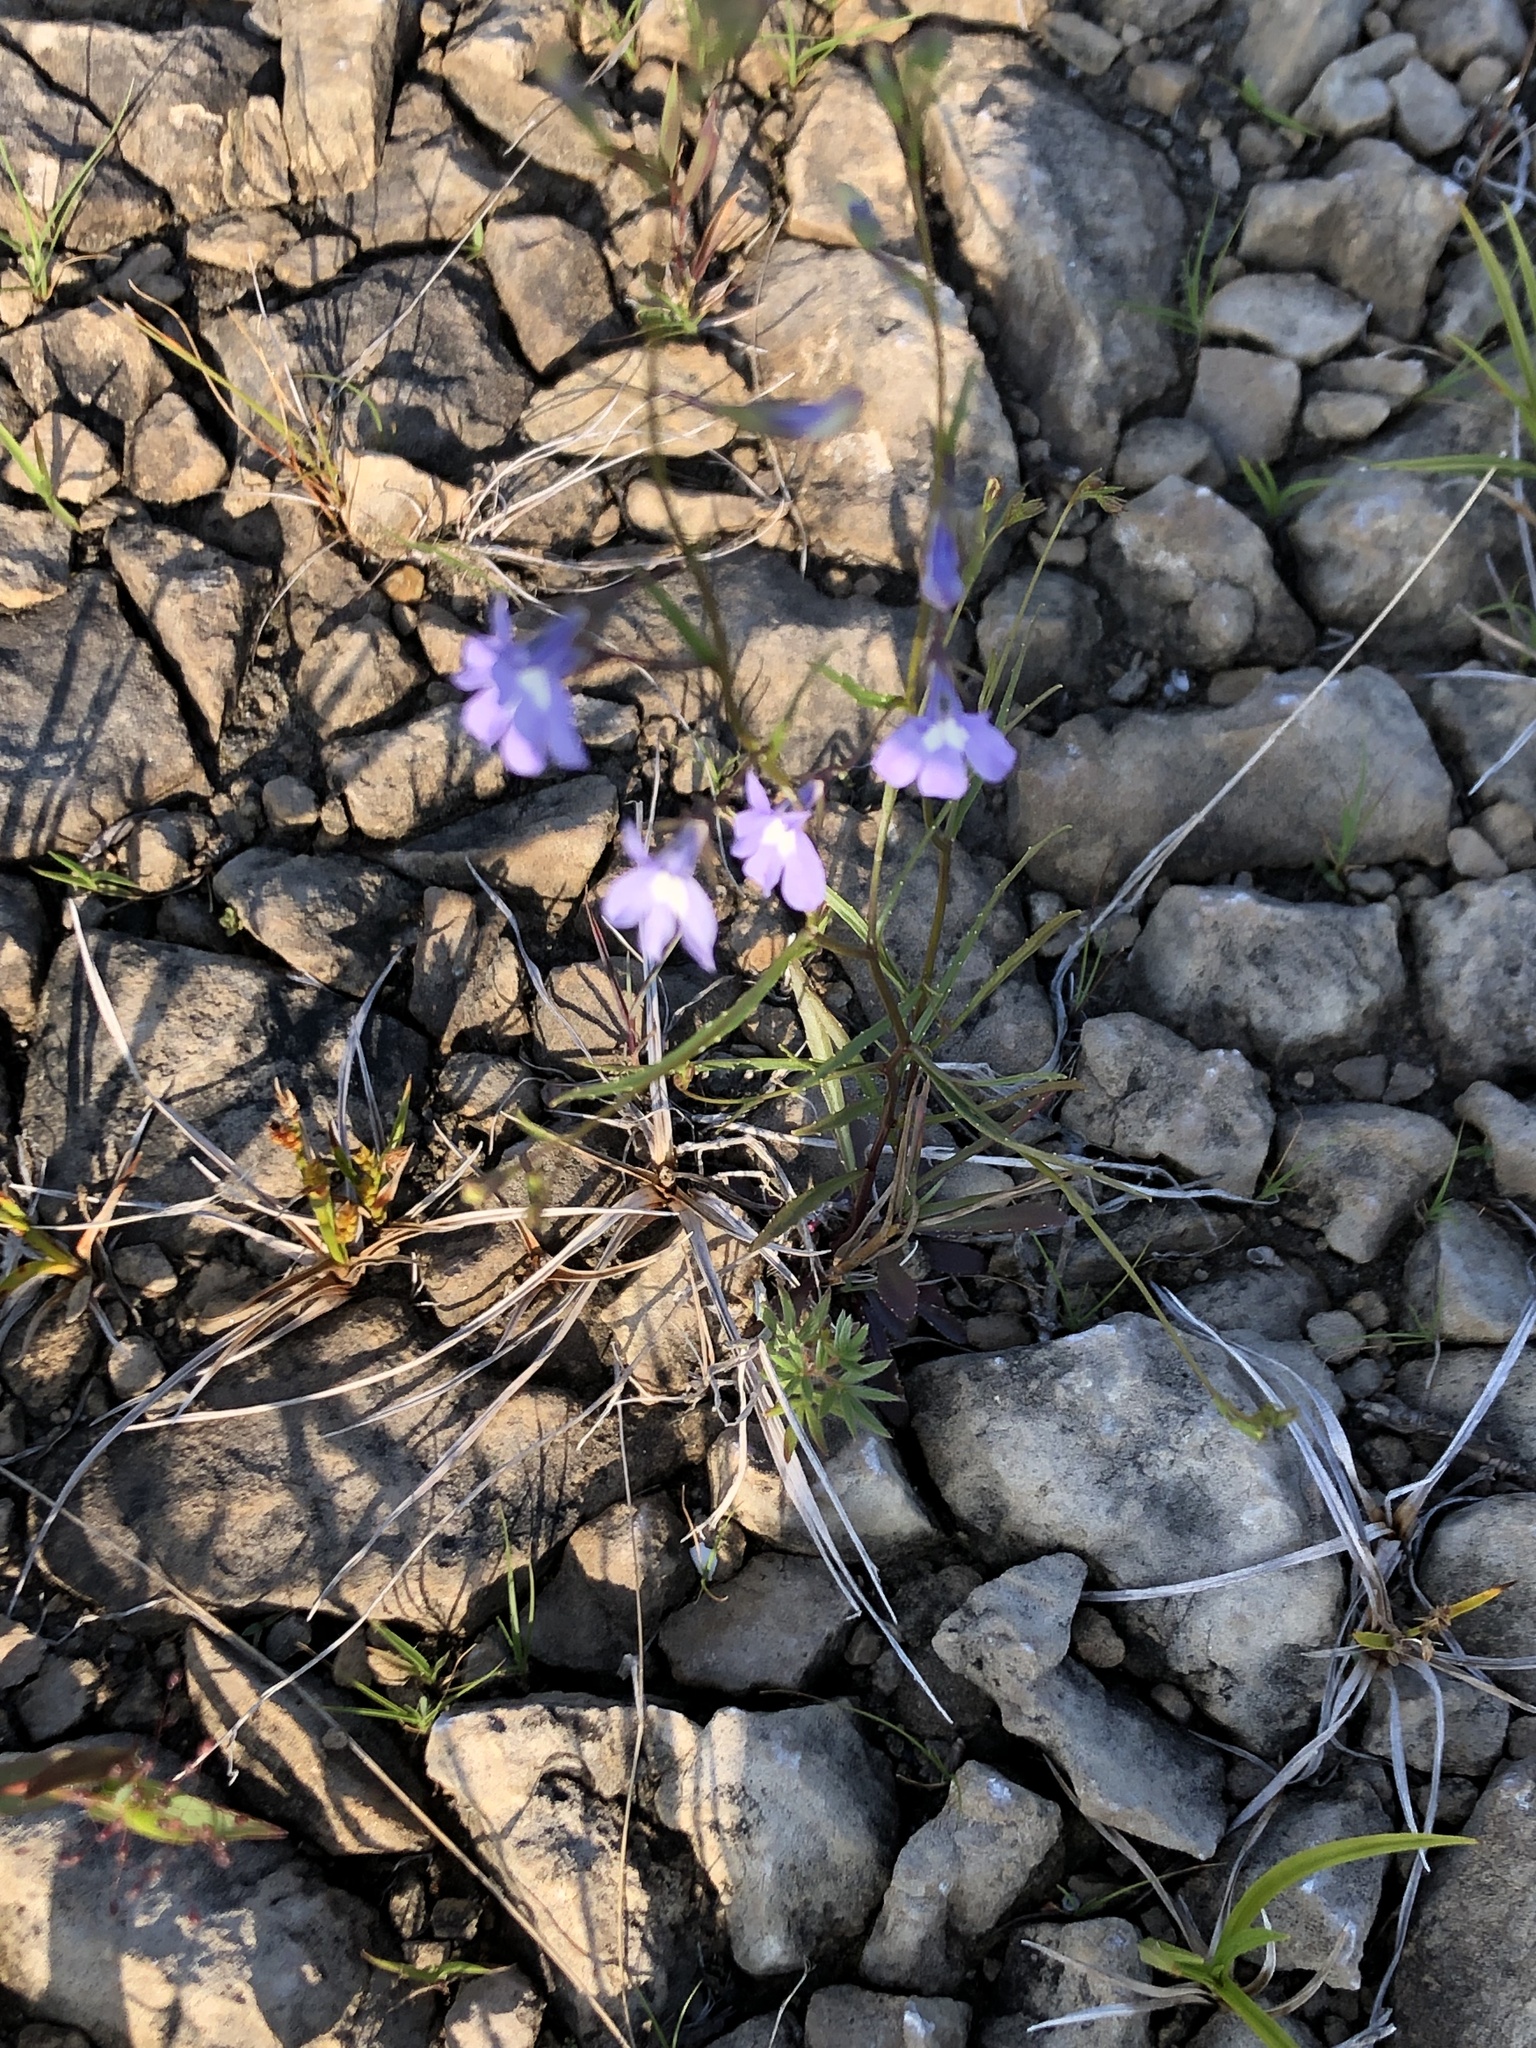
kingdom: Plantae
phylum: Tracheophyta
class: Magnoliopsida
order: Asterales
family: Campanulaceae
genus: Lobelia
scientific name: Lobelia kalmii
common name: Kalm's lobelia
